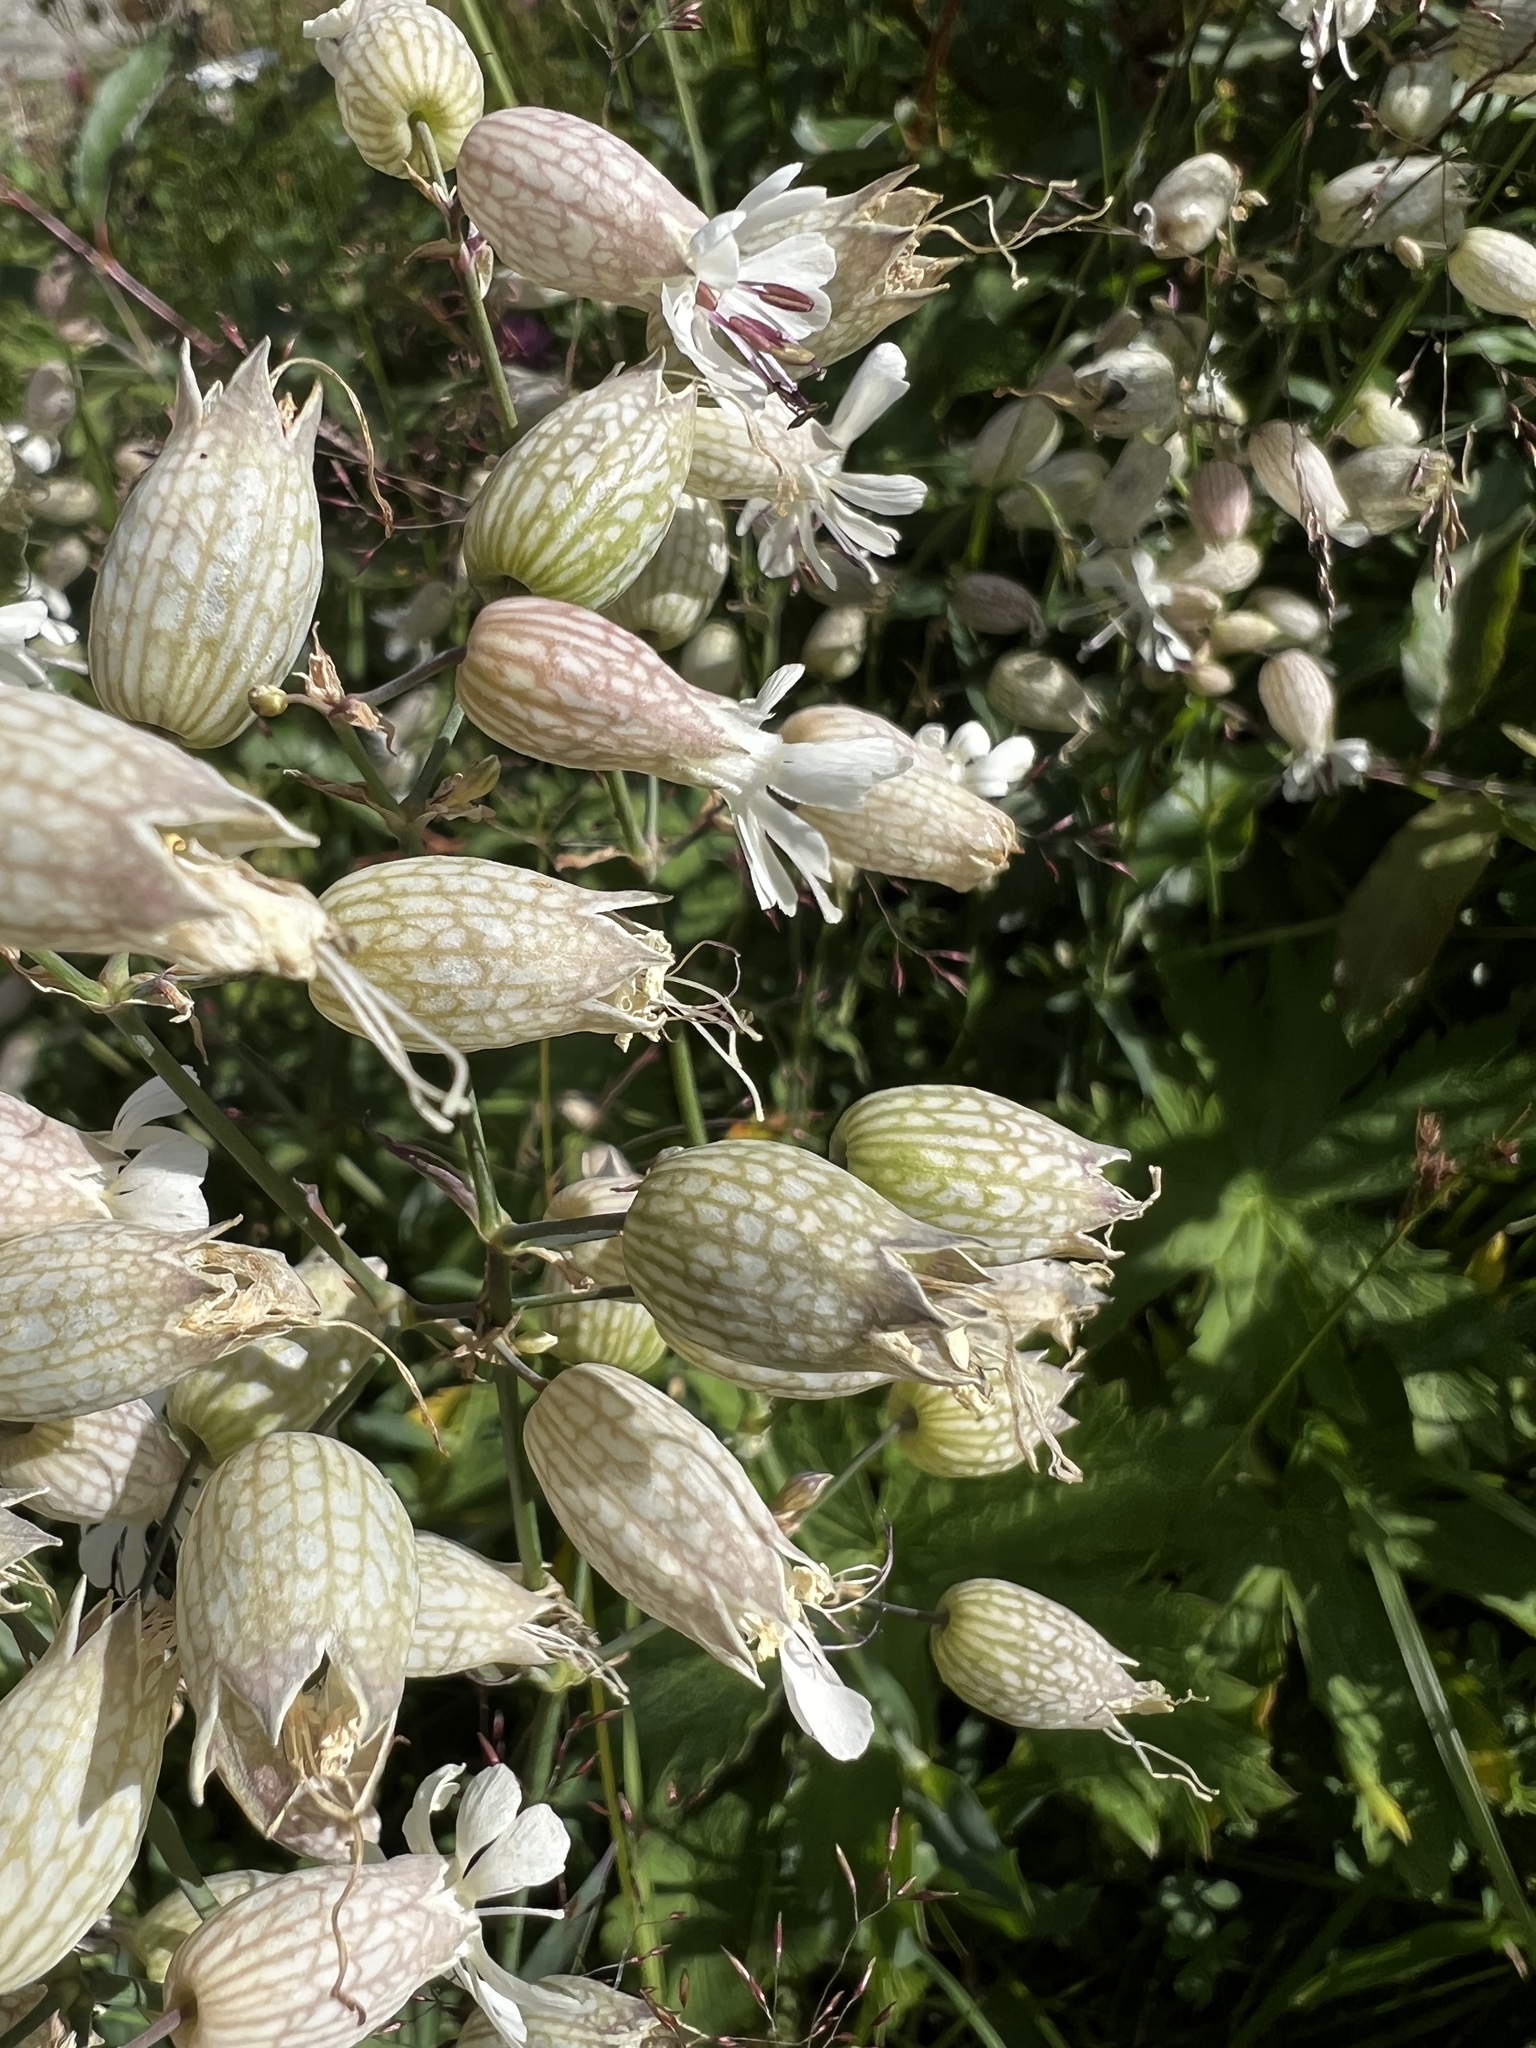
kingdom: Plantae
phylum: Tracheophyta
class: Magnoliopsida
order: Caryophyllales
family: Caryophyllaceae
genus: Silene
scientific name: Silene vulgaris
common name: Bladder campion
